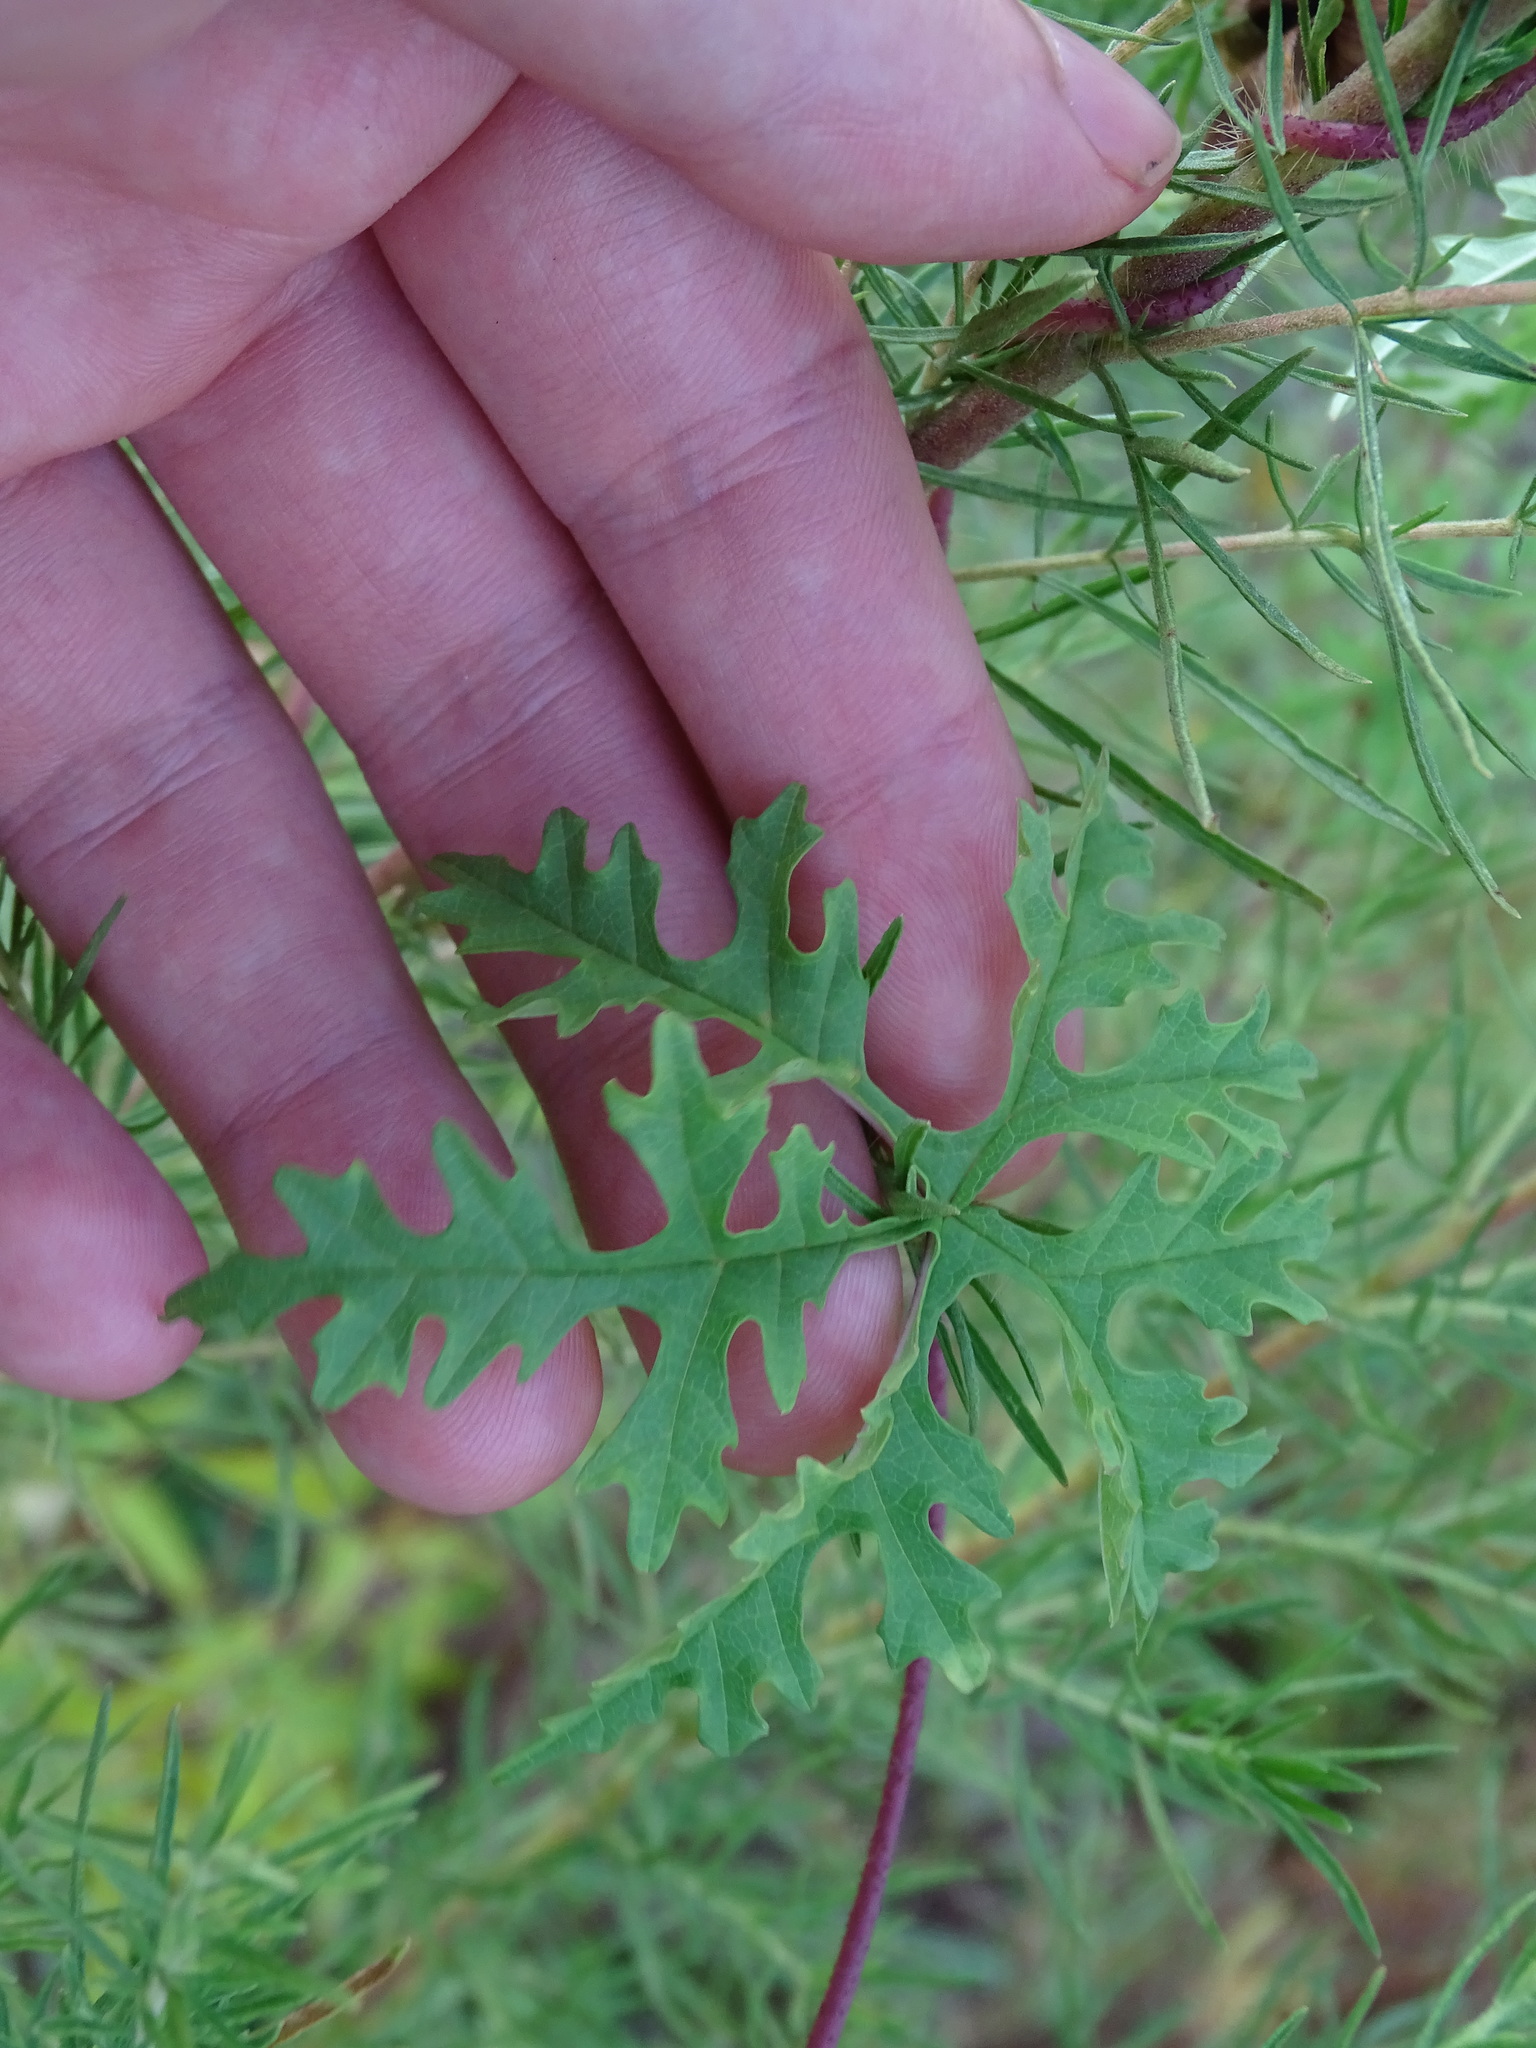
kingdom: Plantae
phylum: Tracheophyta
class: Magnoliopsida
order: Solanales
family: Convolvulaceae
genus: Distimake
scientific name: Distimake dissectus
